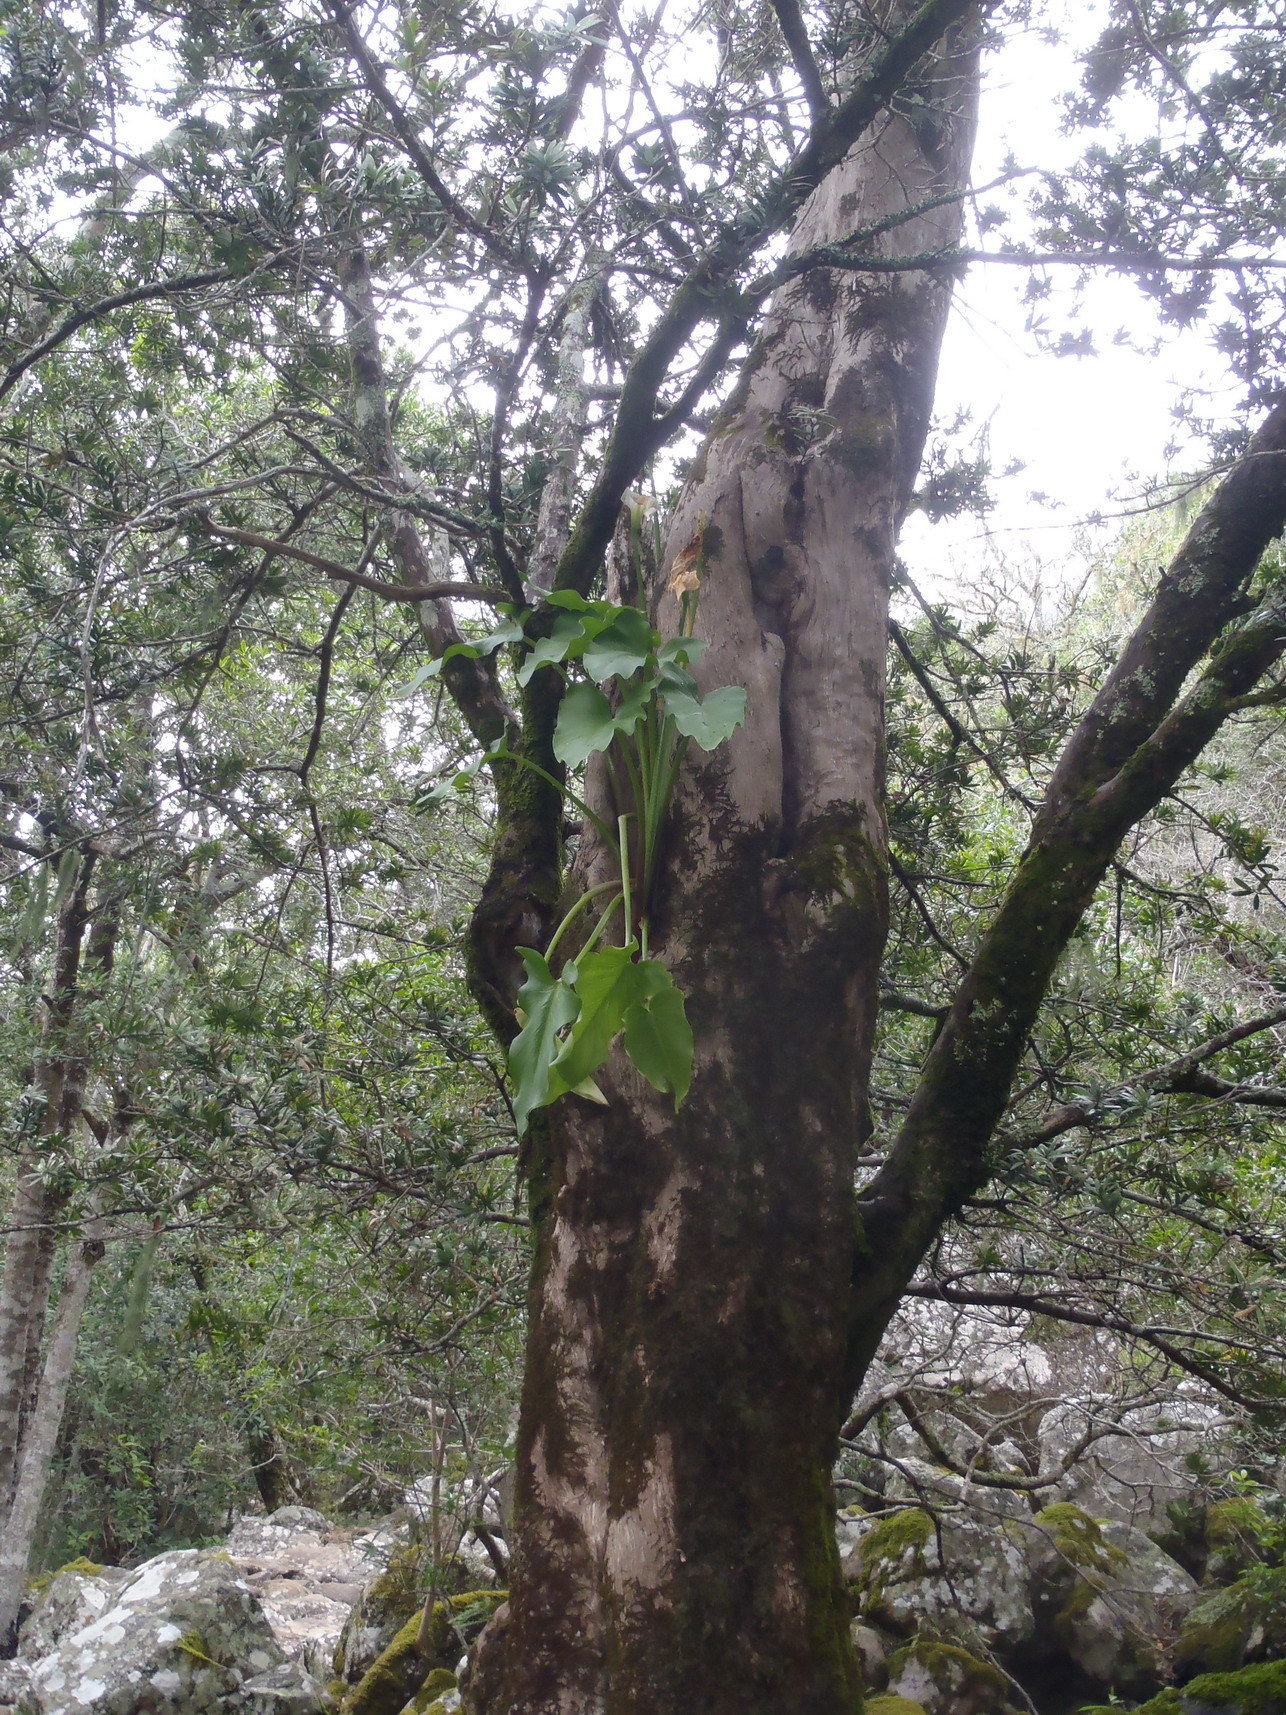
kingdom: Plantae
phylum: Tracheophyta
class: Liliopsida
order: Alismatales
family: Araceae
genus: Zantedeschia
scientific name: Zantedeschia aethiopica
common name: Altar-lily
